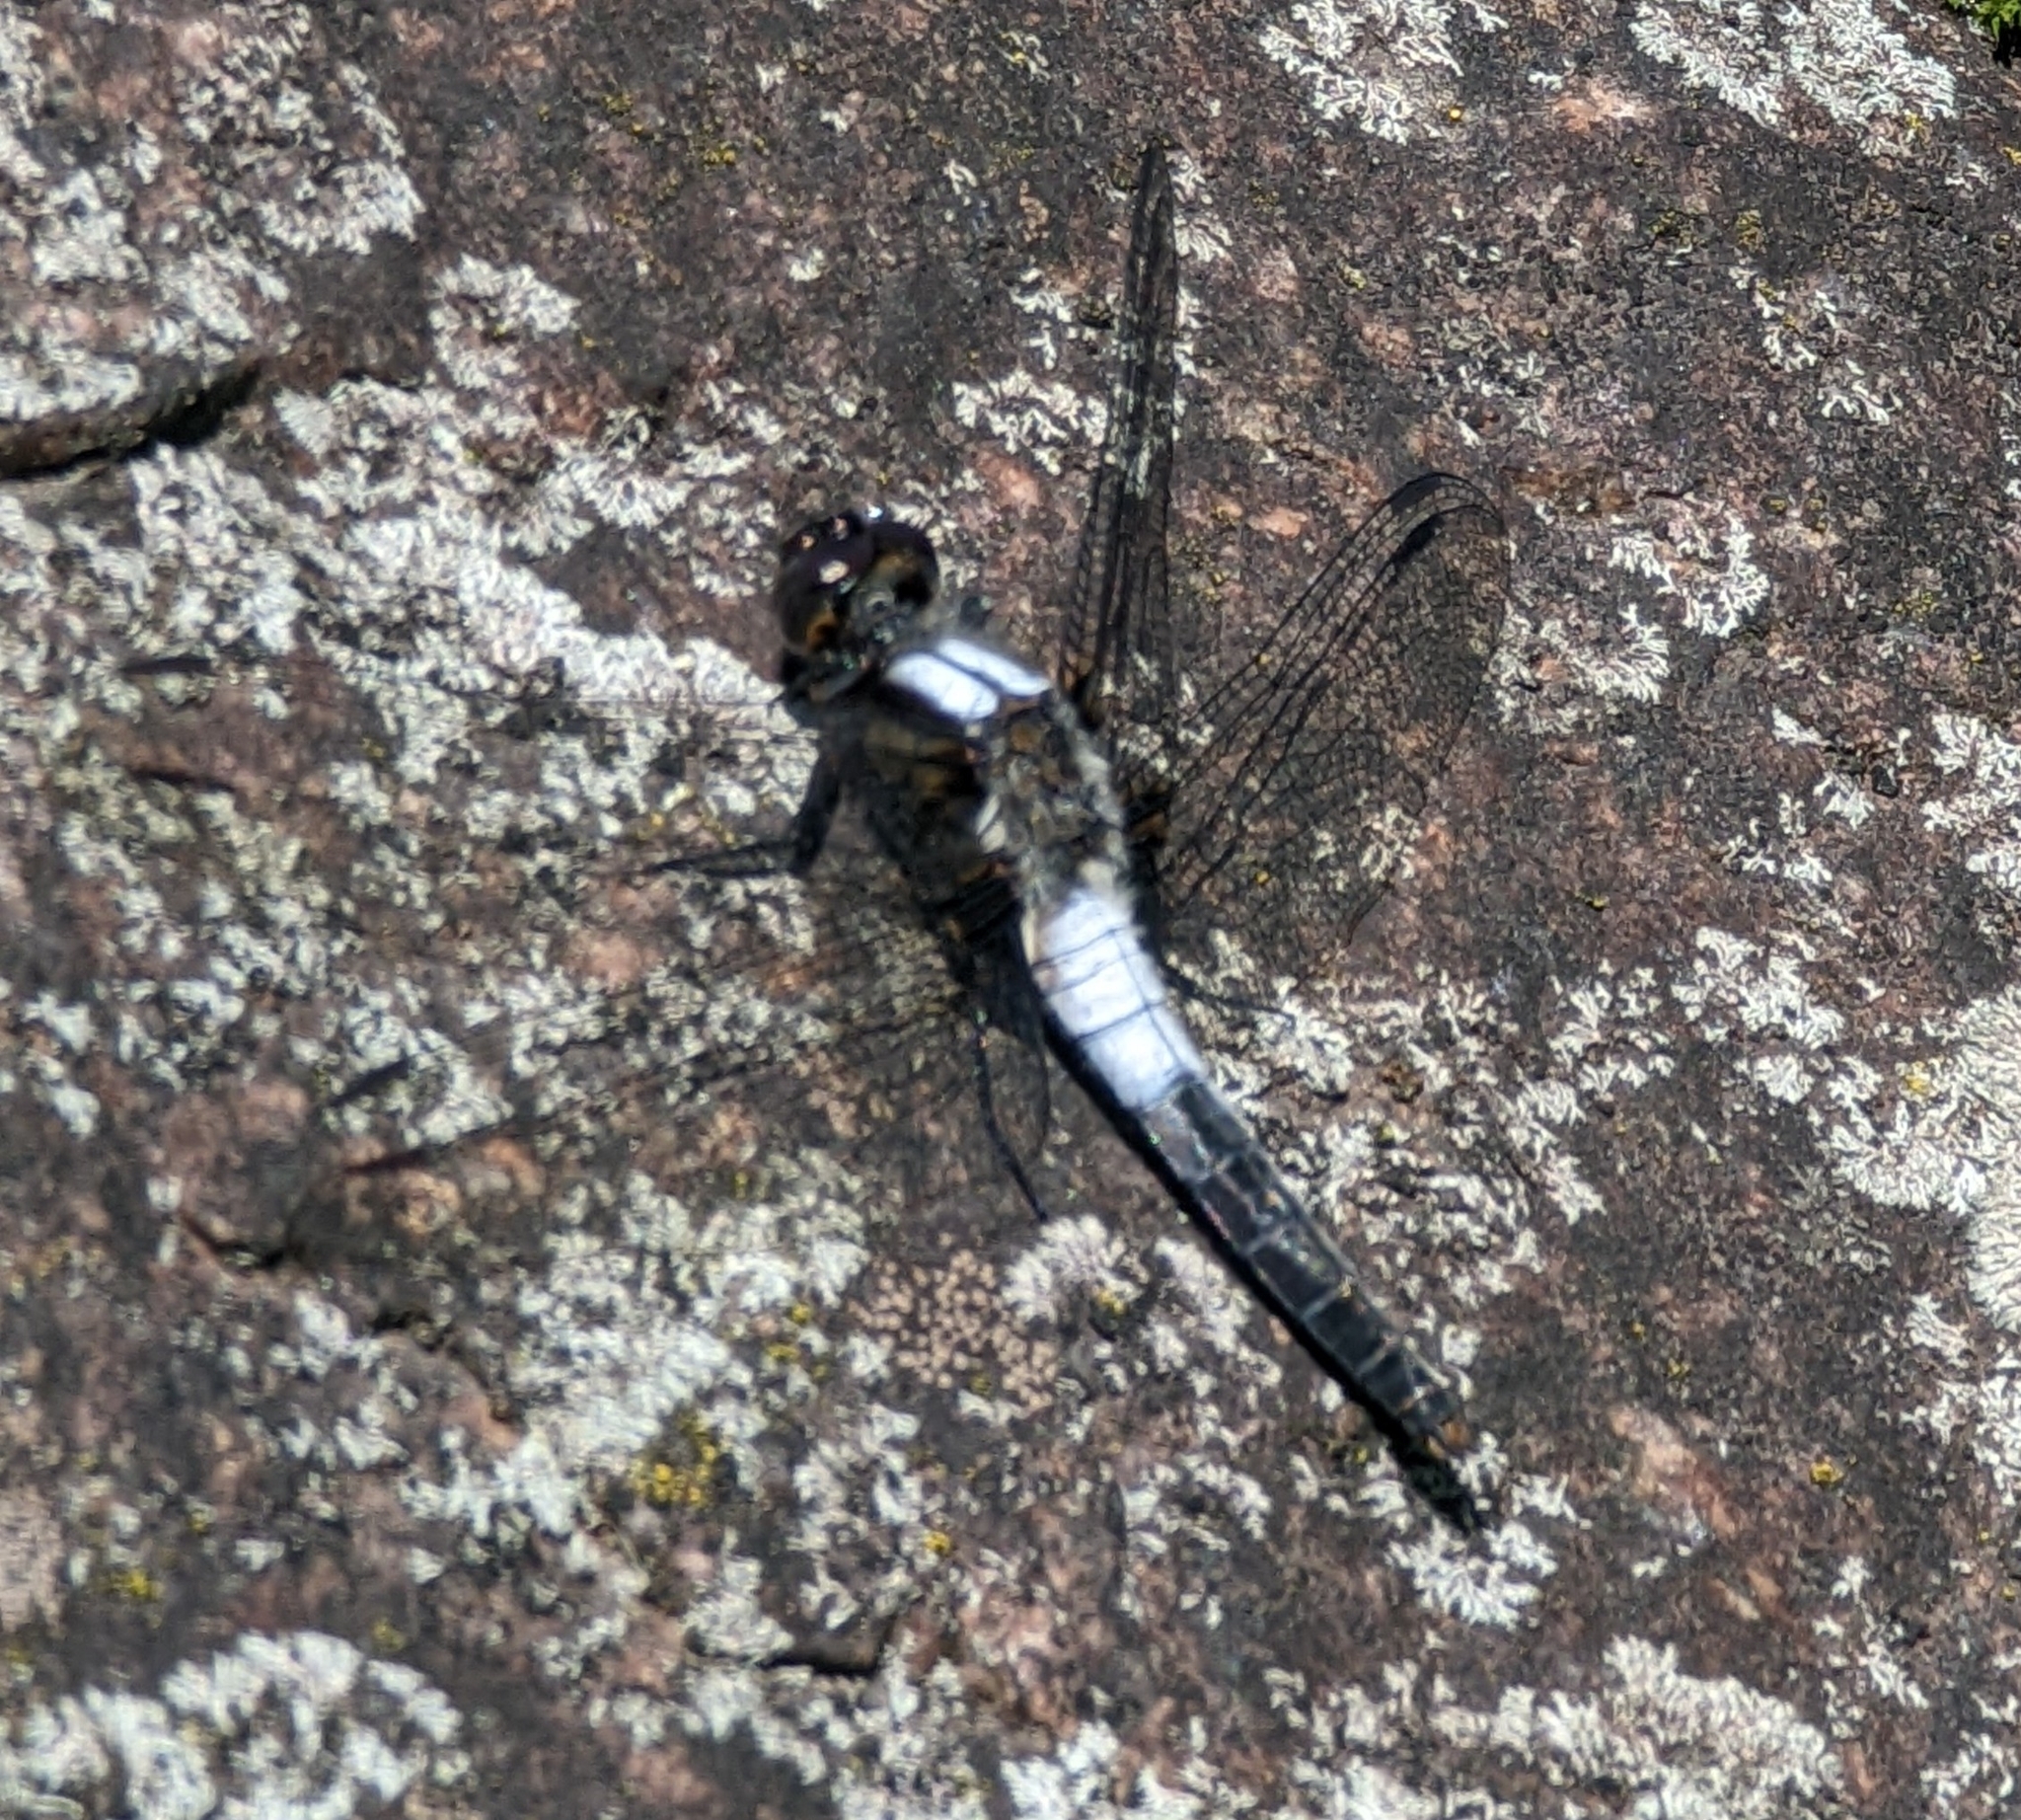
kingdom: Animalia
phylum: Arthropoda
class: Insecta
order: Odonata
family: Libellulidae
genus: Ladona
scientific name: Ladona julia
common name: Chalk-fronted corporal
